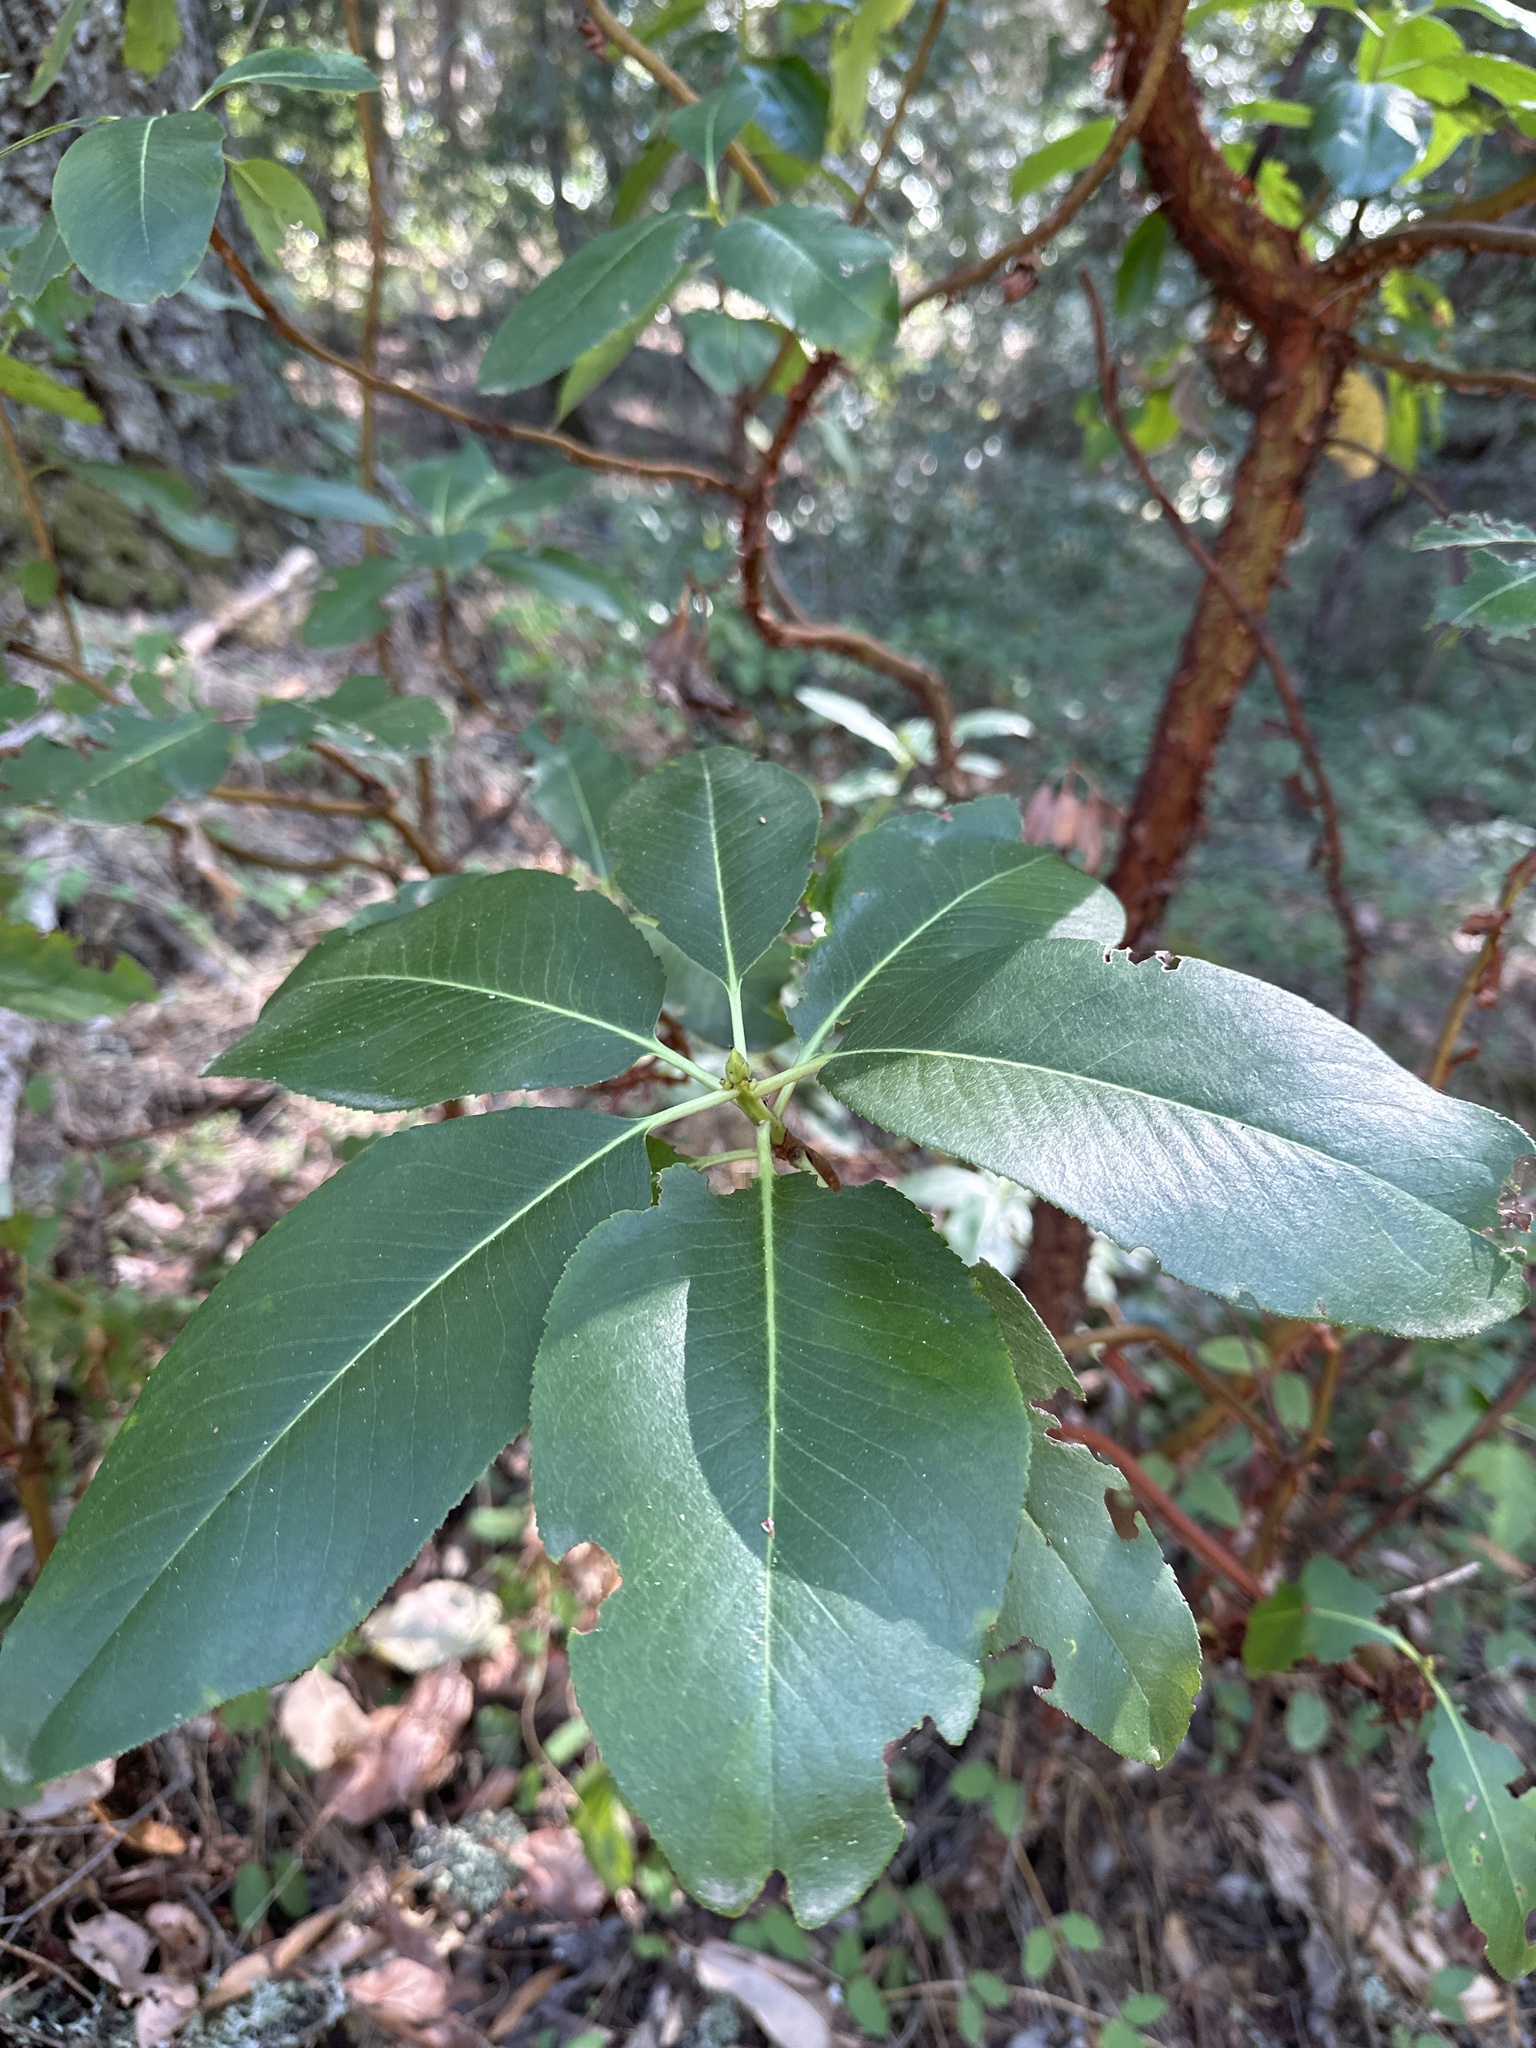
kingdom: Plantae
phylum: Tracheophyta
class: Magnoliopsida
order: Ericales
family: Ericaceae
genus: Arbutus
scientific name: Arbutus menziesii
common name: Pacific madrone
